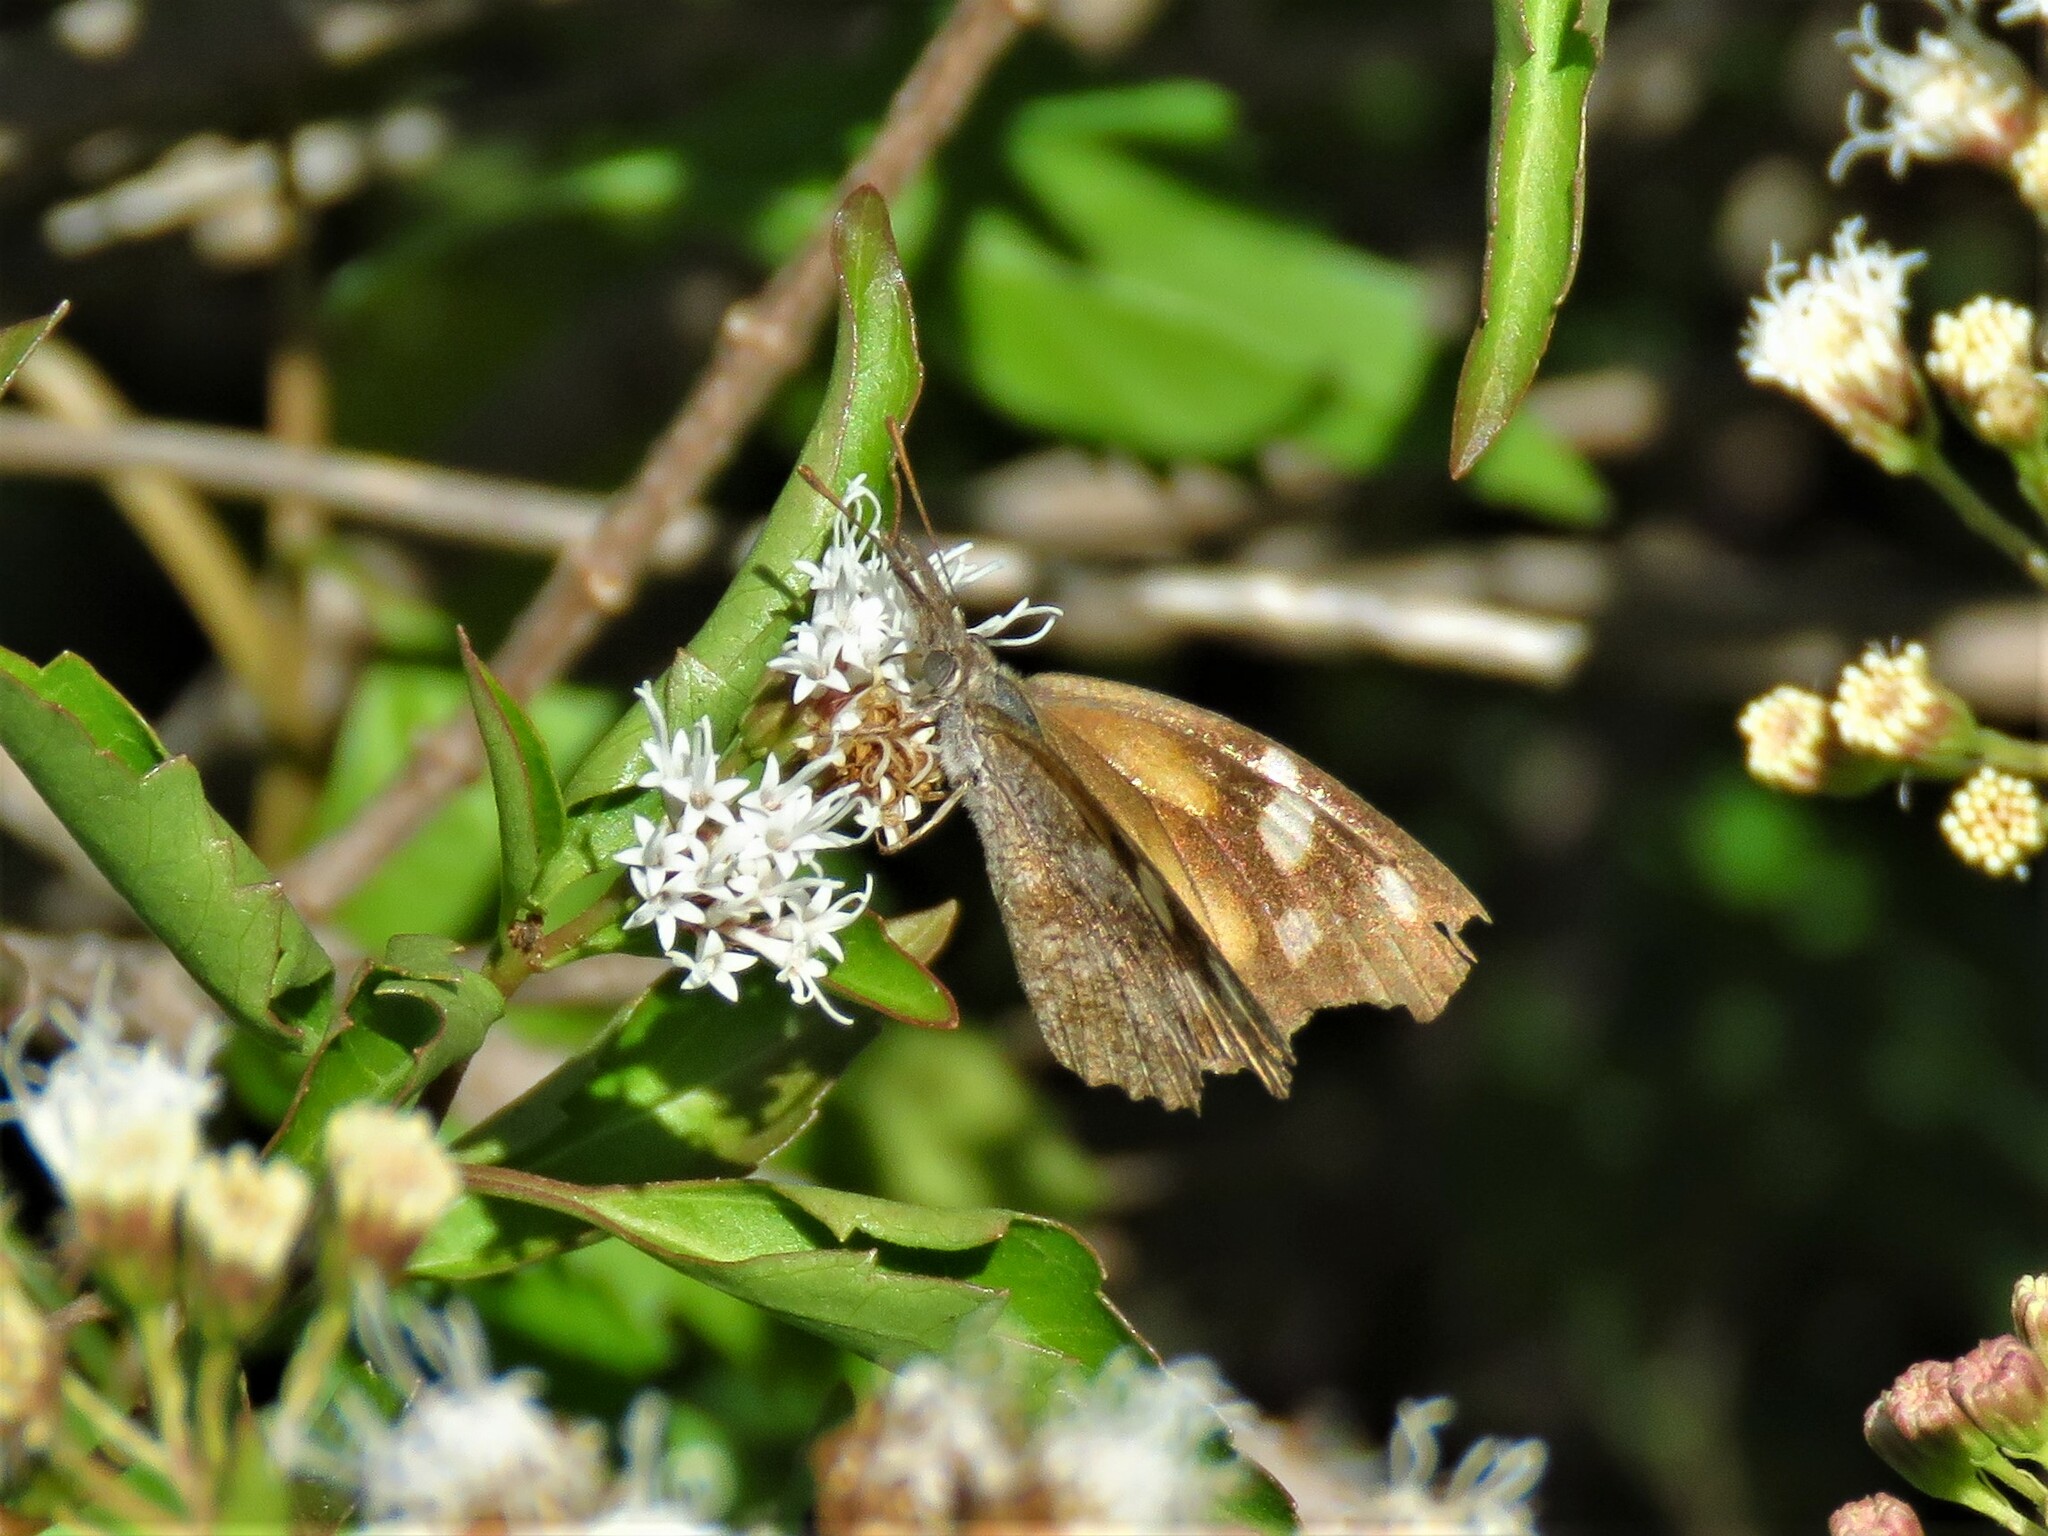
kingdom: Animalia
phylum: Arthropoda
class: Insecta
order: Lepidoptera
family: Nymphalidae
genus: Libytheana
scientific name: Libytheana carinenta
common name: American snout
